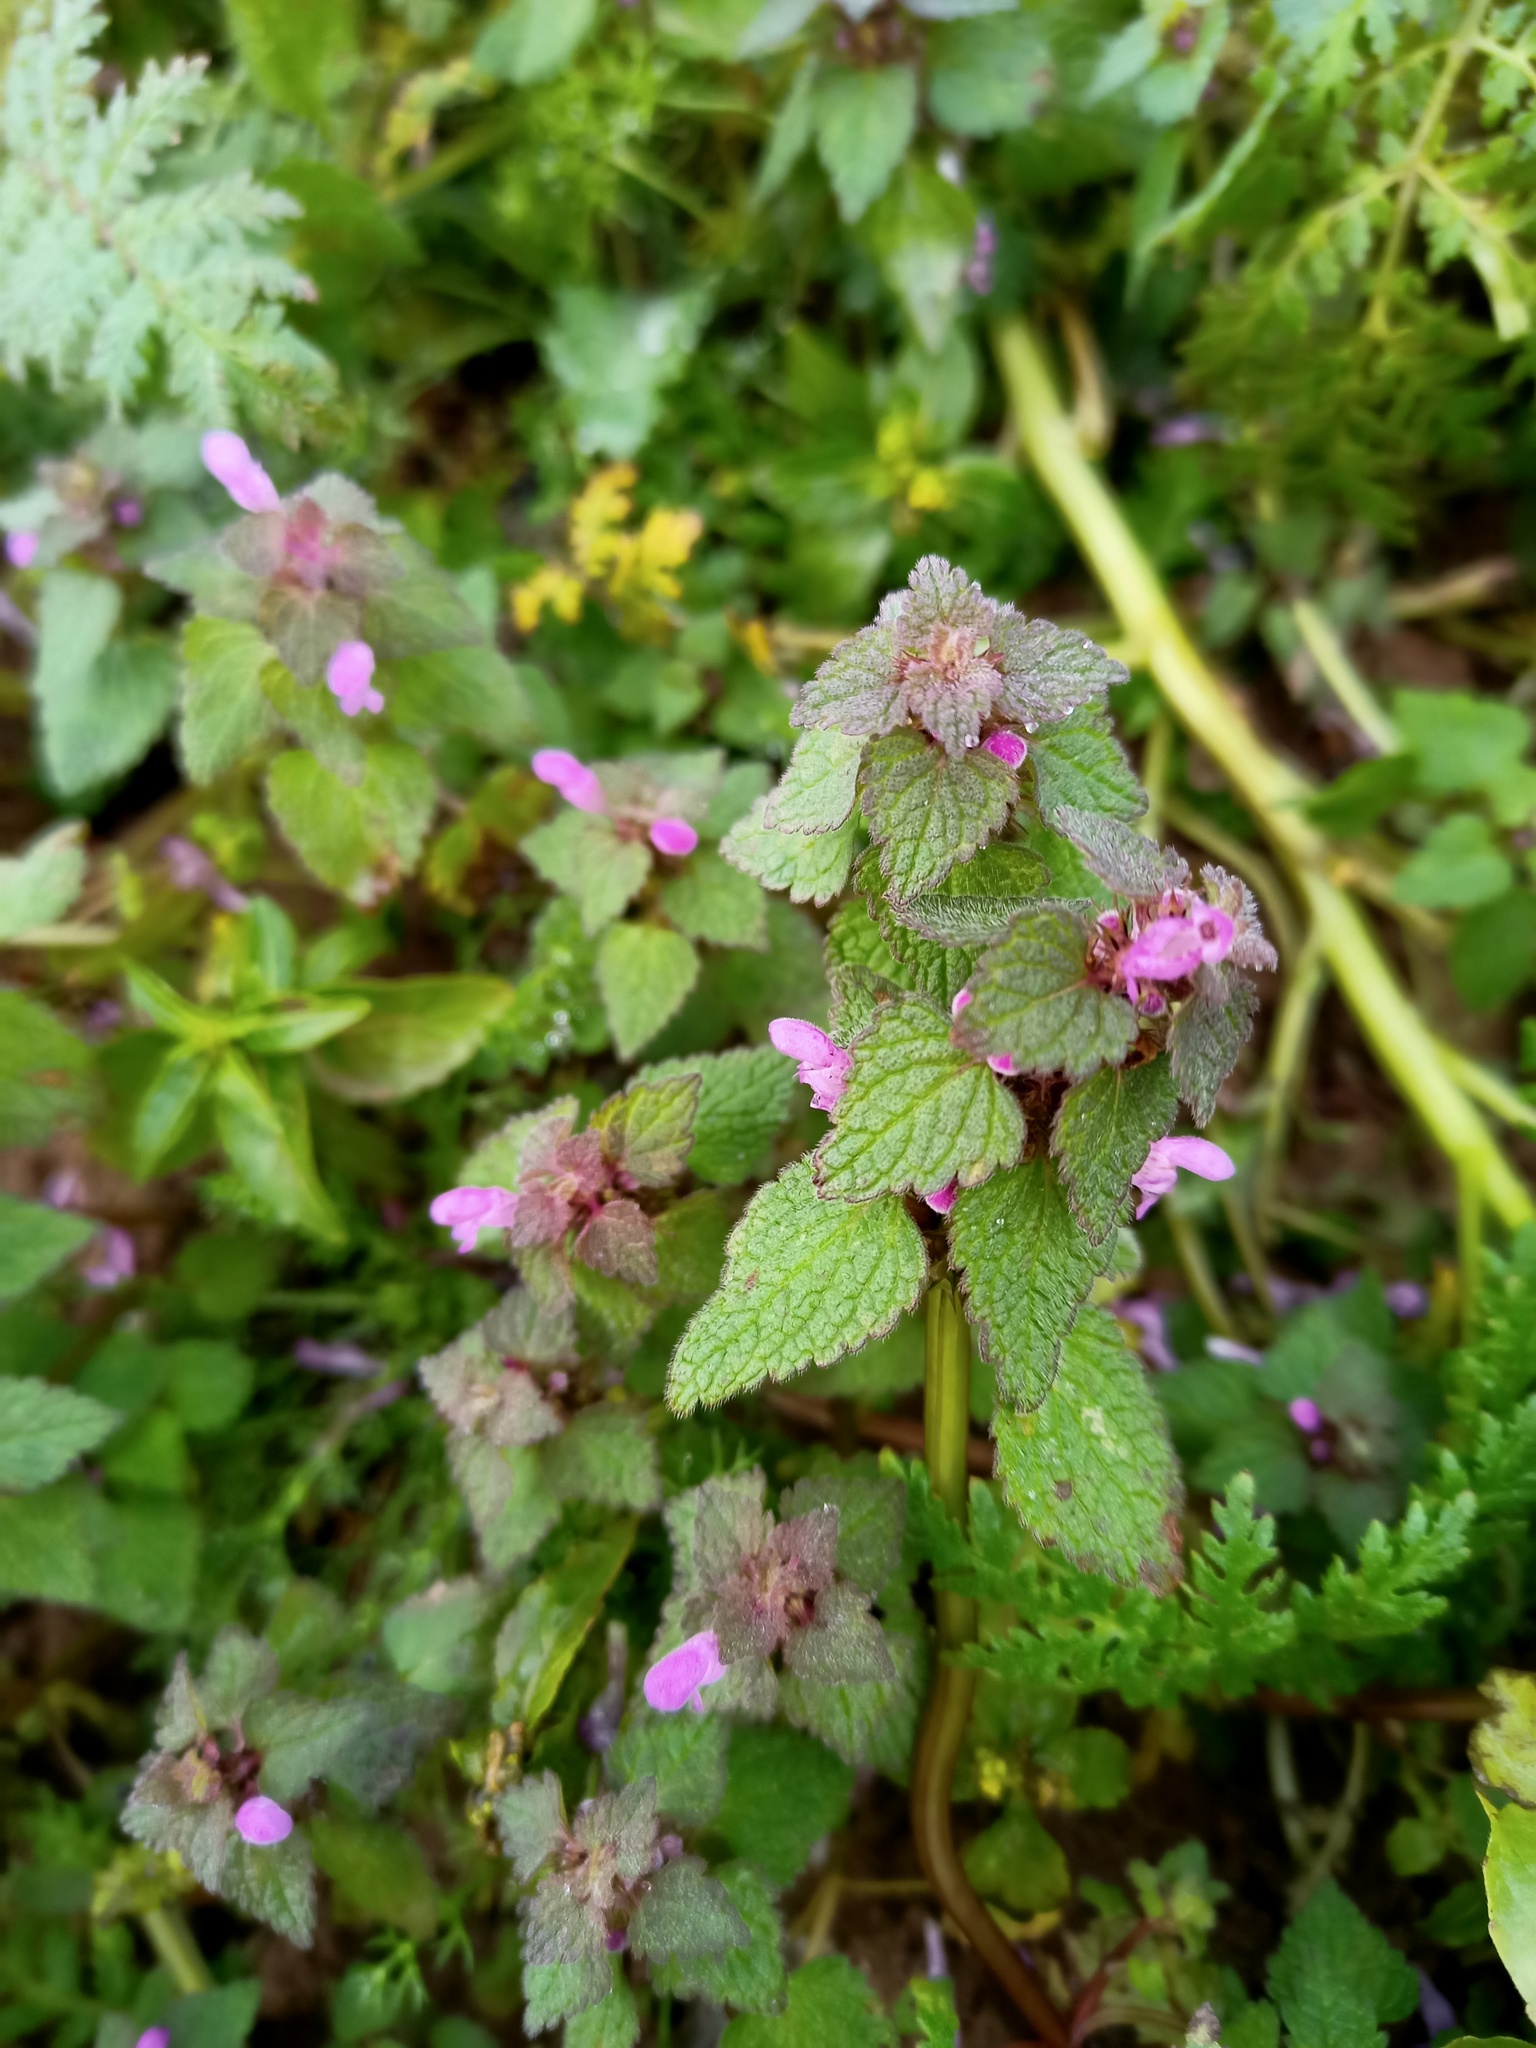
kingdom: Plantae
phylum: Tracheophyta
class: Magnoliopsida
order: Lamiales
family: Lamiaceae
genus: Lamium
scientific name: Lamium purpureum
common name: Red dead-nettle
